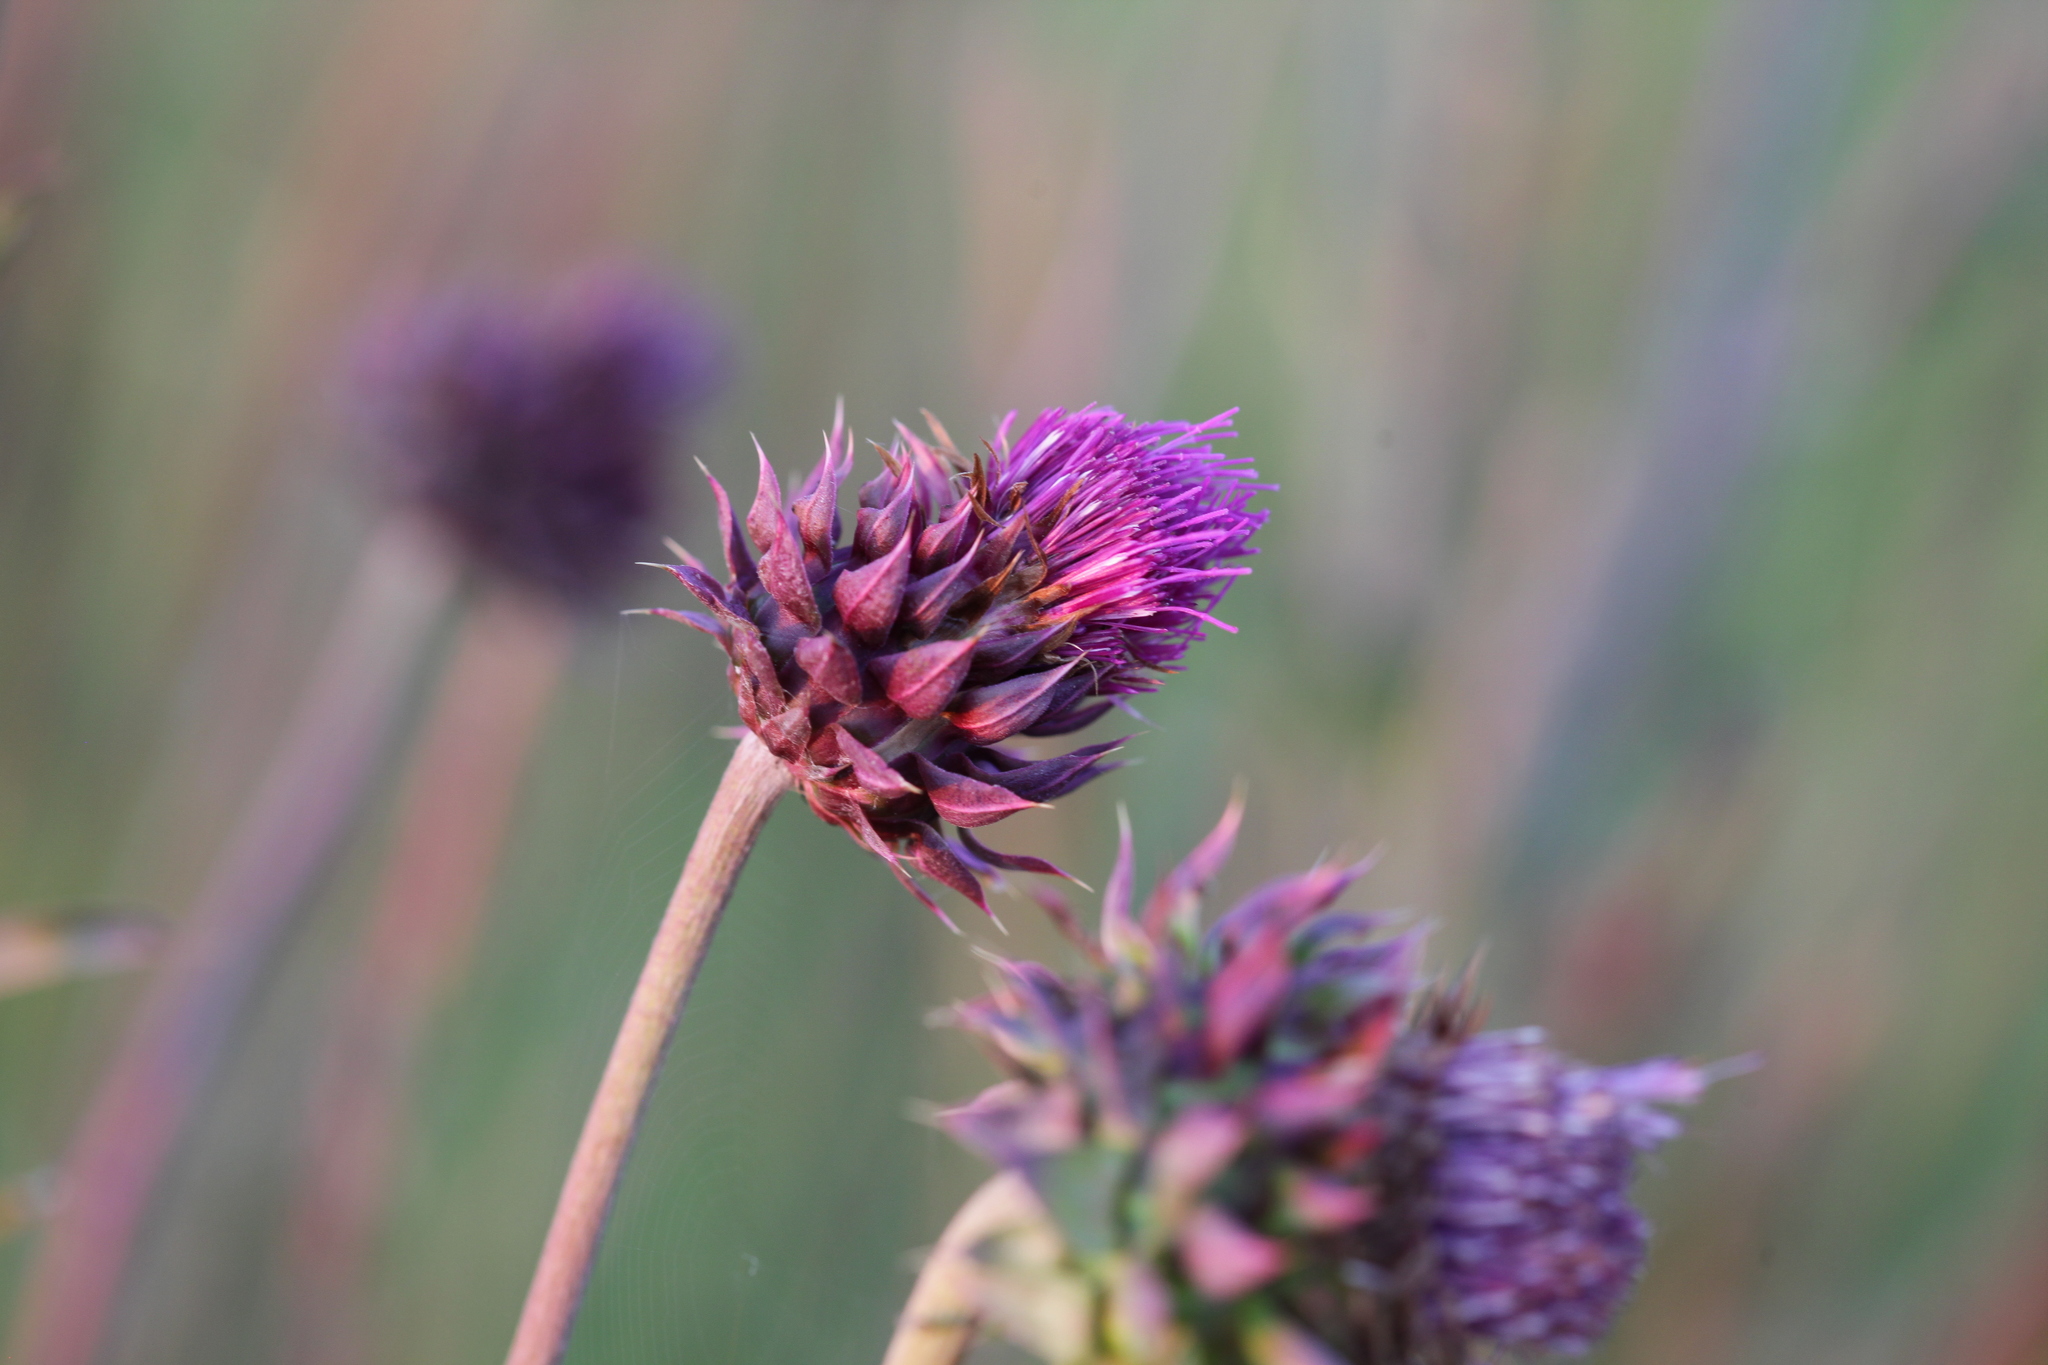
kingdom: Plantae
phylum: Tracheophyta
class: Magnoliopsida
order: Asterales
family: Asteraceae
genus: Carduus
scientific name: Carduus nutans
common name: Musk thistle
